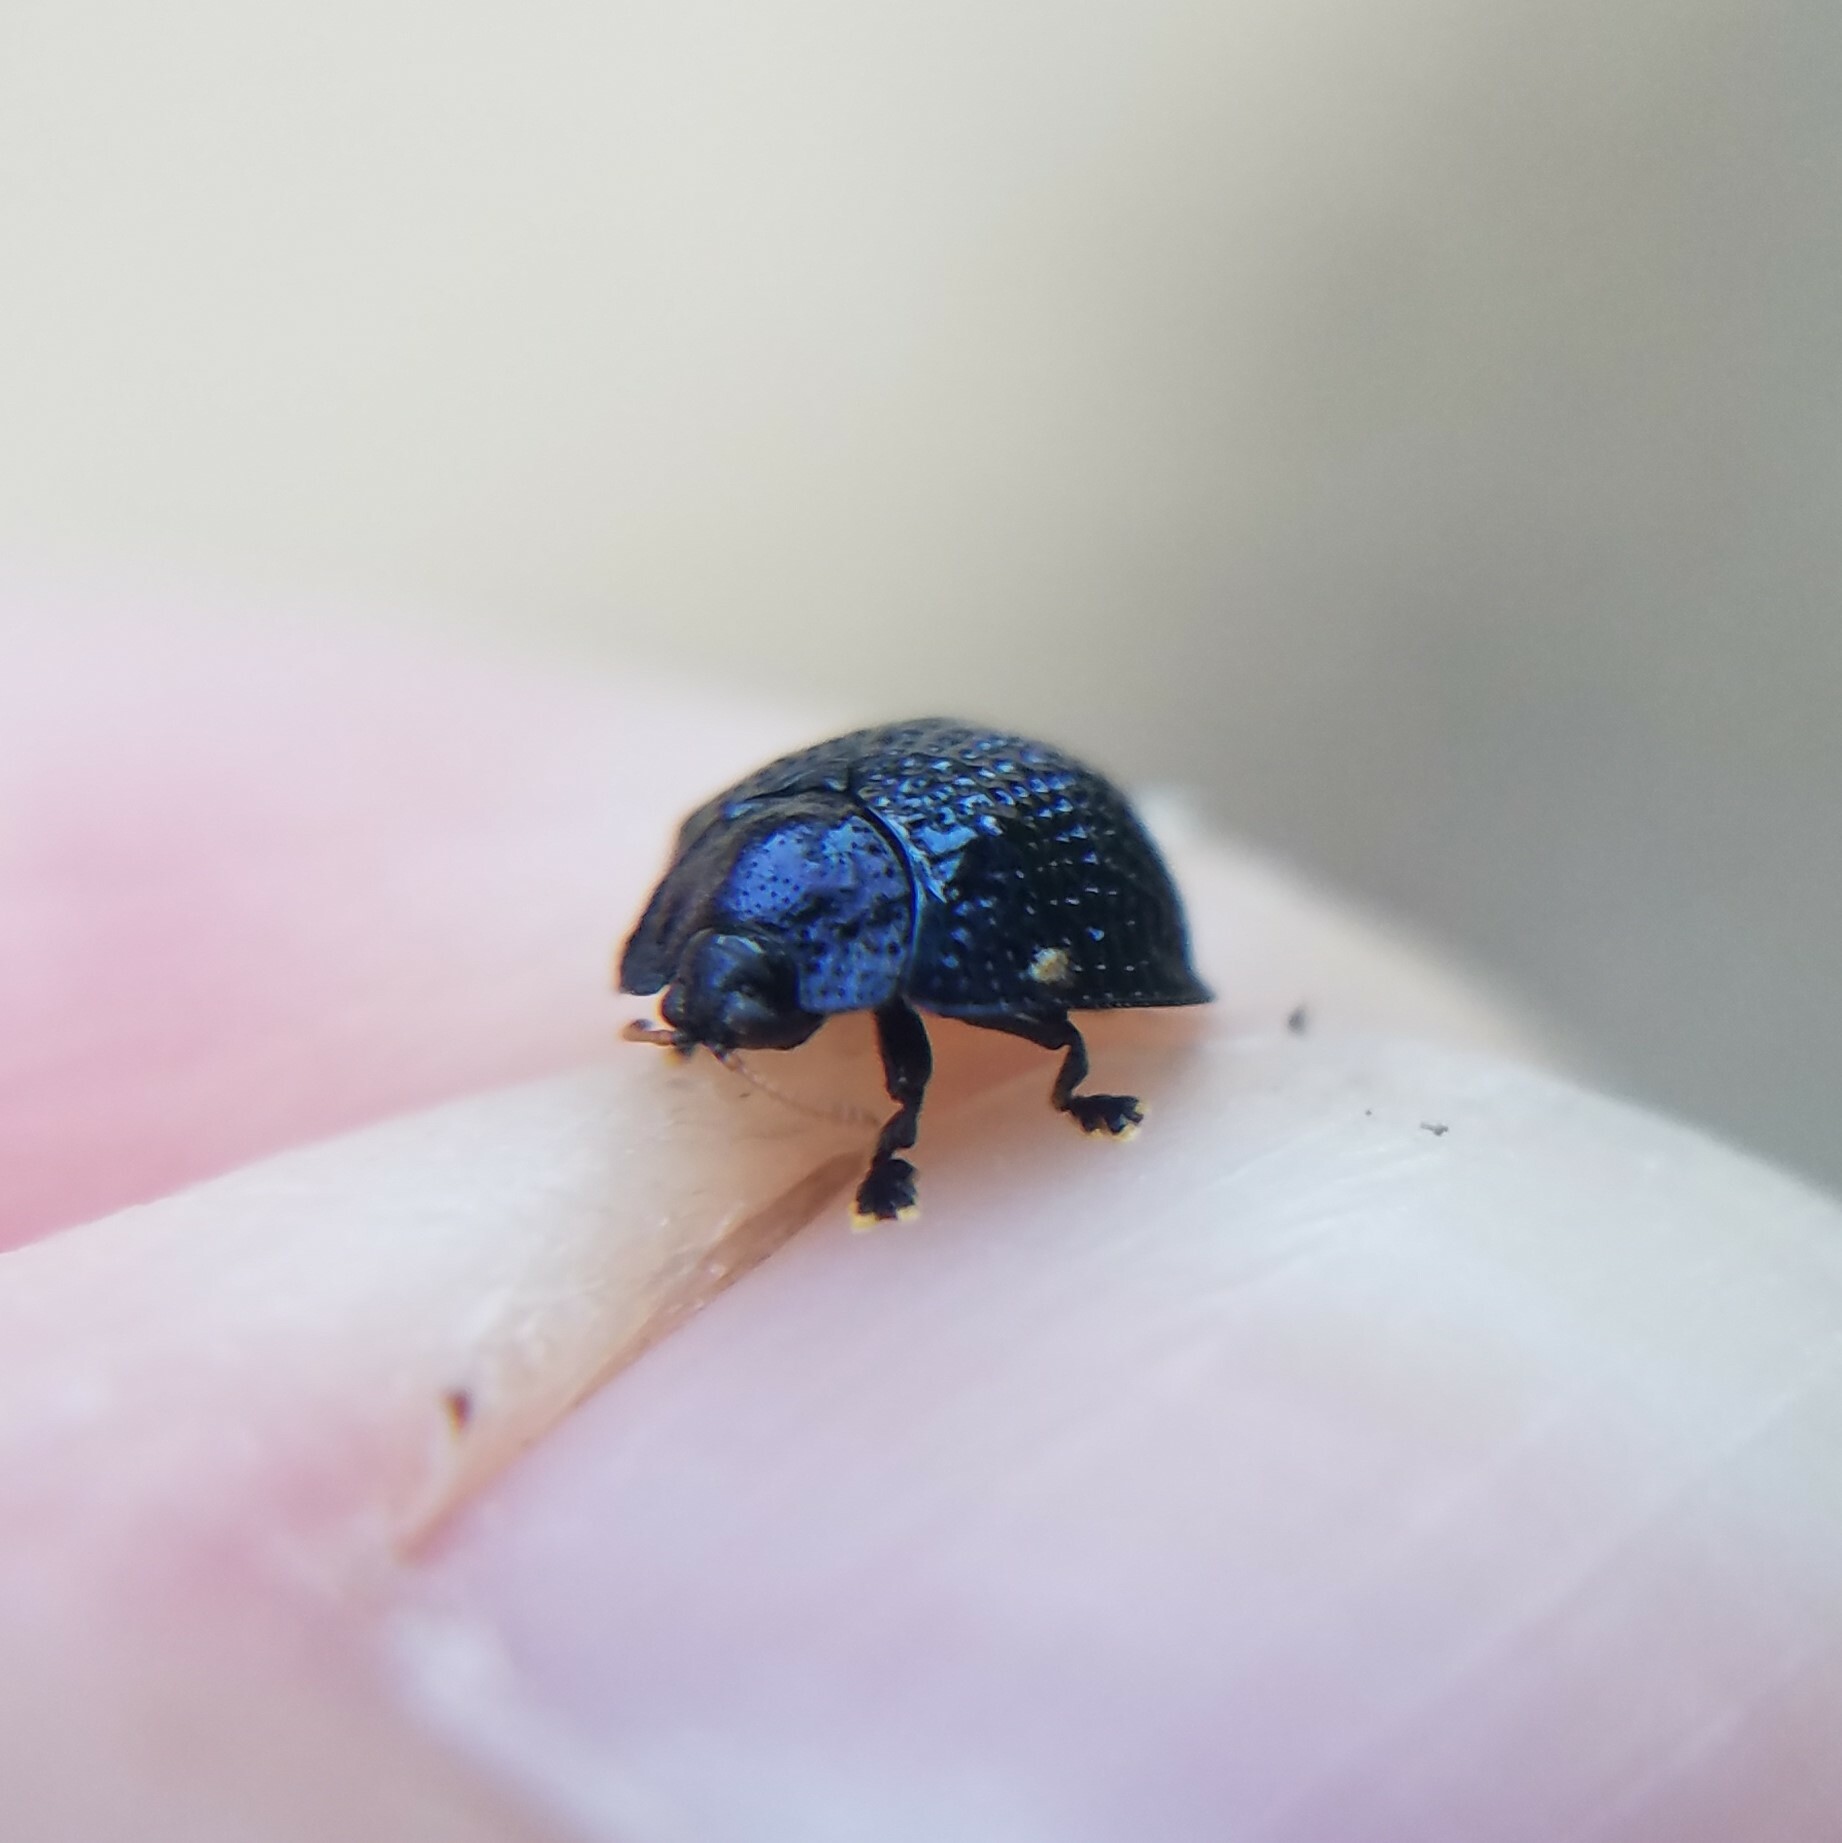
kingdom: Animalia
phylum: Arthropoda
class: Insecta
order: Coleoptera
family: Chrysomelidae
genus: Hemisphaerota
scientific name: Hemisphaerota cyanea
